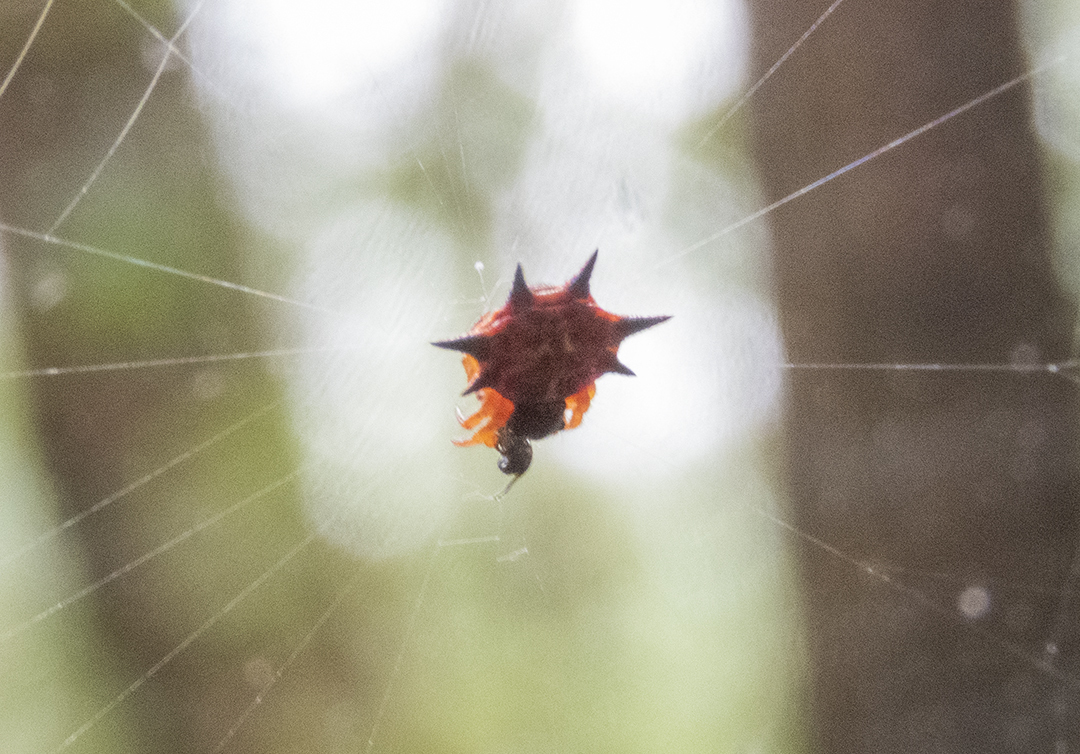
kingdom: Animalia
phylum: Arthropoda
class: Arachnida
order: Araneae
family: Araneidae
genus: Macracantha
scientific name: Macracantha hasselti
